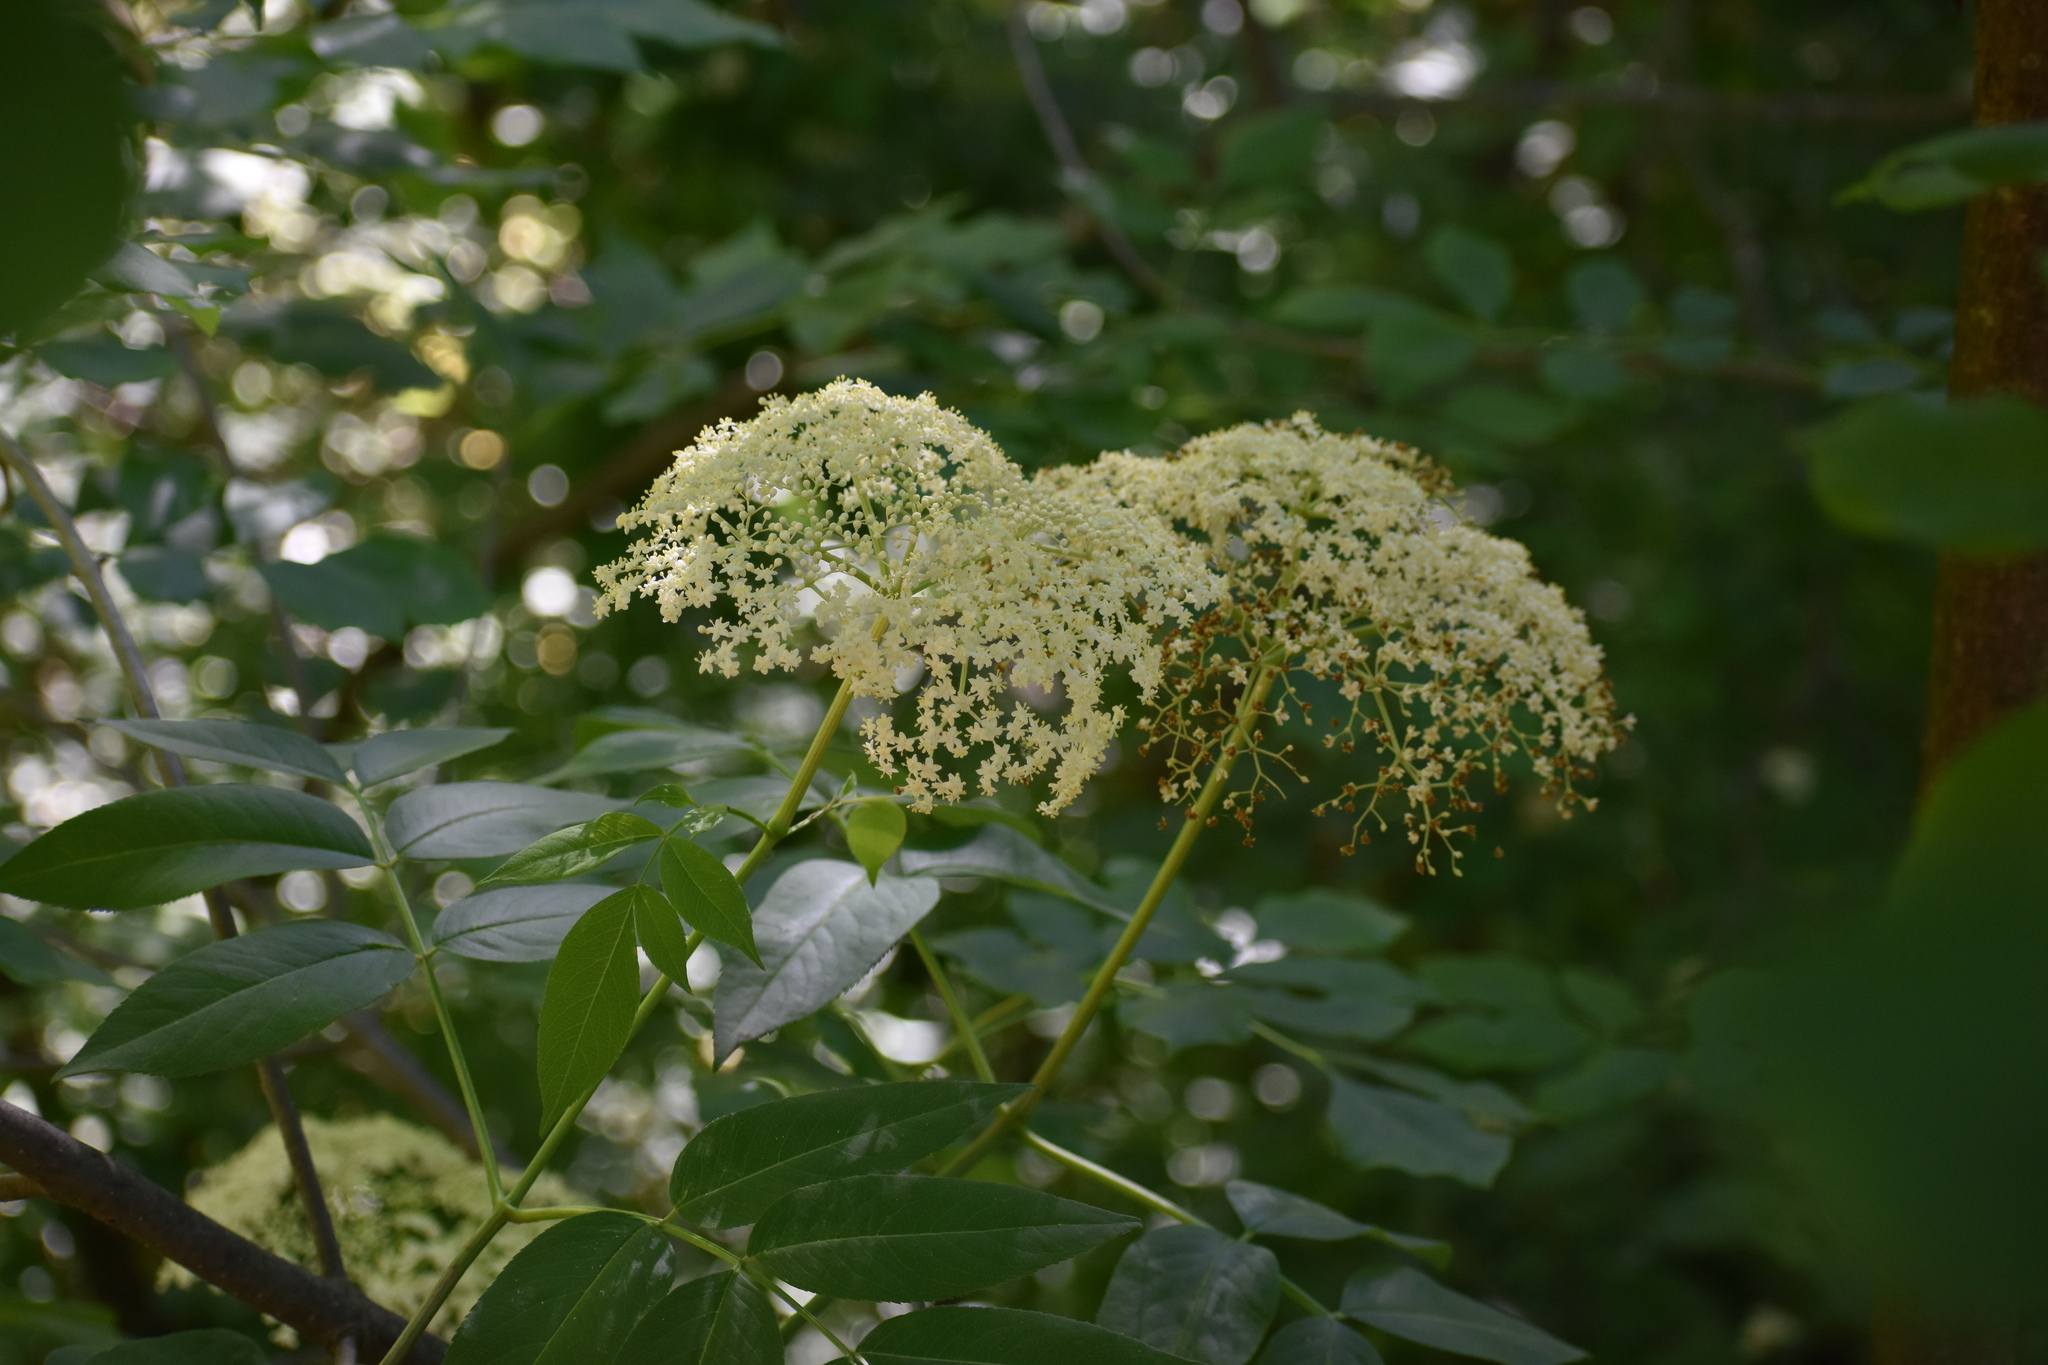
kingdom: Plantae
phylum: Tracheophyta
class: Magnoliopsida
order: Dipsacales
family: Viburnaceae
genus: Sambucus
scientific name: Sambucus canadensis
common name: American elder
